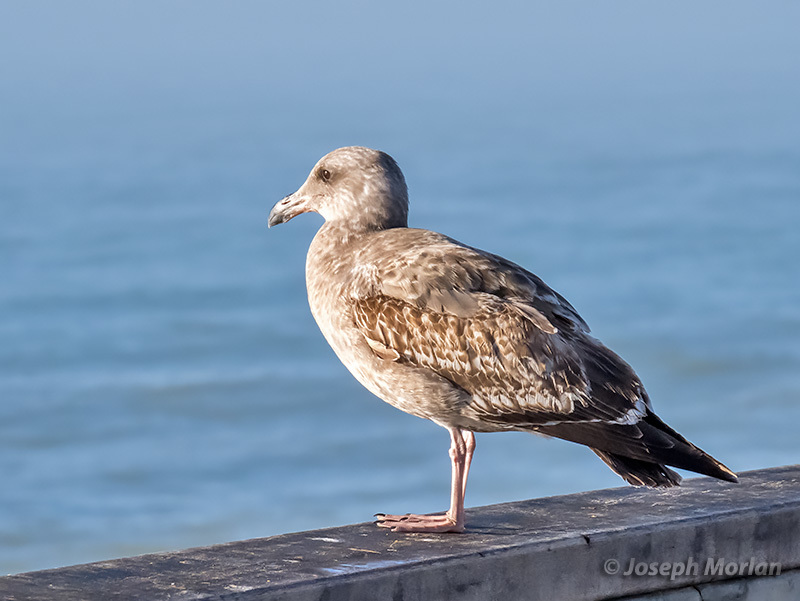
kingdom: Animalia
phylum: Chordata
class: Aves
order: Charadriiformes
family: Laridae
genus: Larus
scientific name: Larus occidentalis
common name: Western gull
